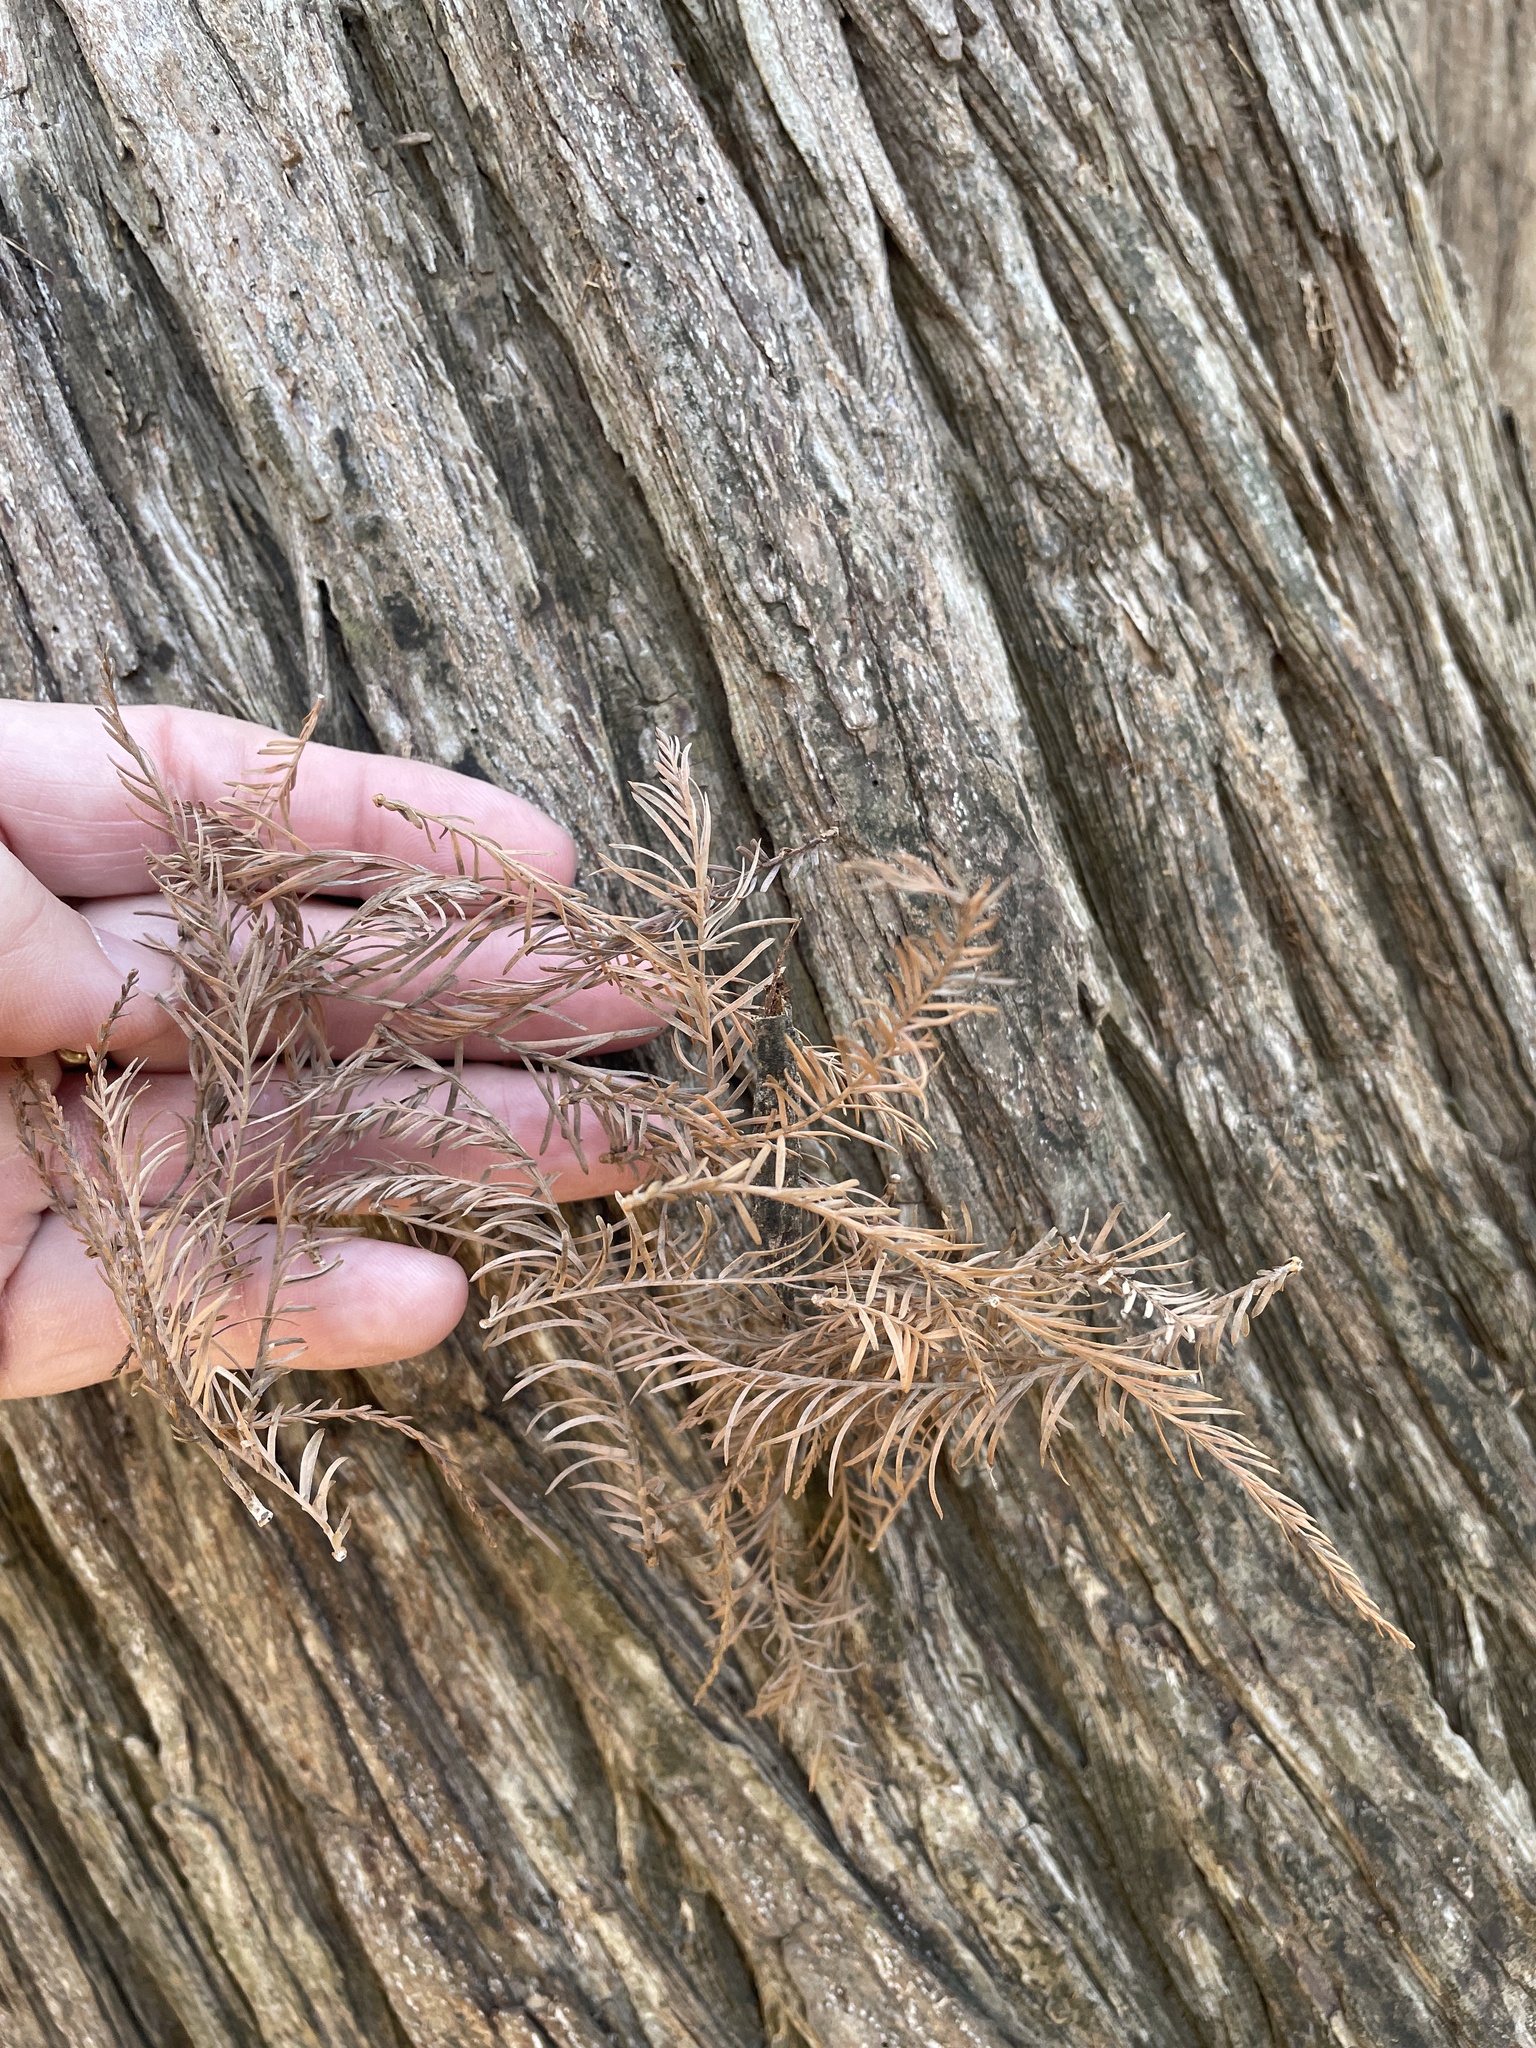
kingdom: Plantae
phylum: Tracheophyta
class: Pinopsida
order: Pinales
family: Cupressaceae
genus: Taxodium
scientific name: Taxodium distichum
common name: Bald cypress
